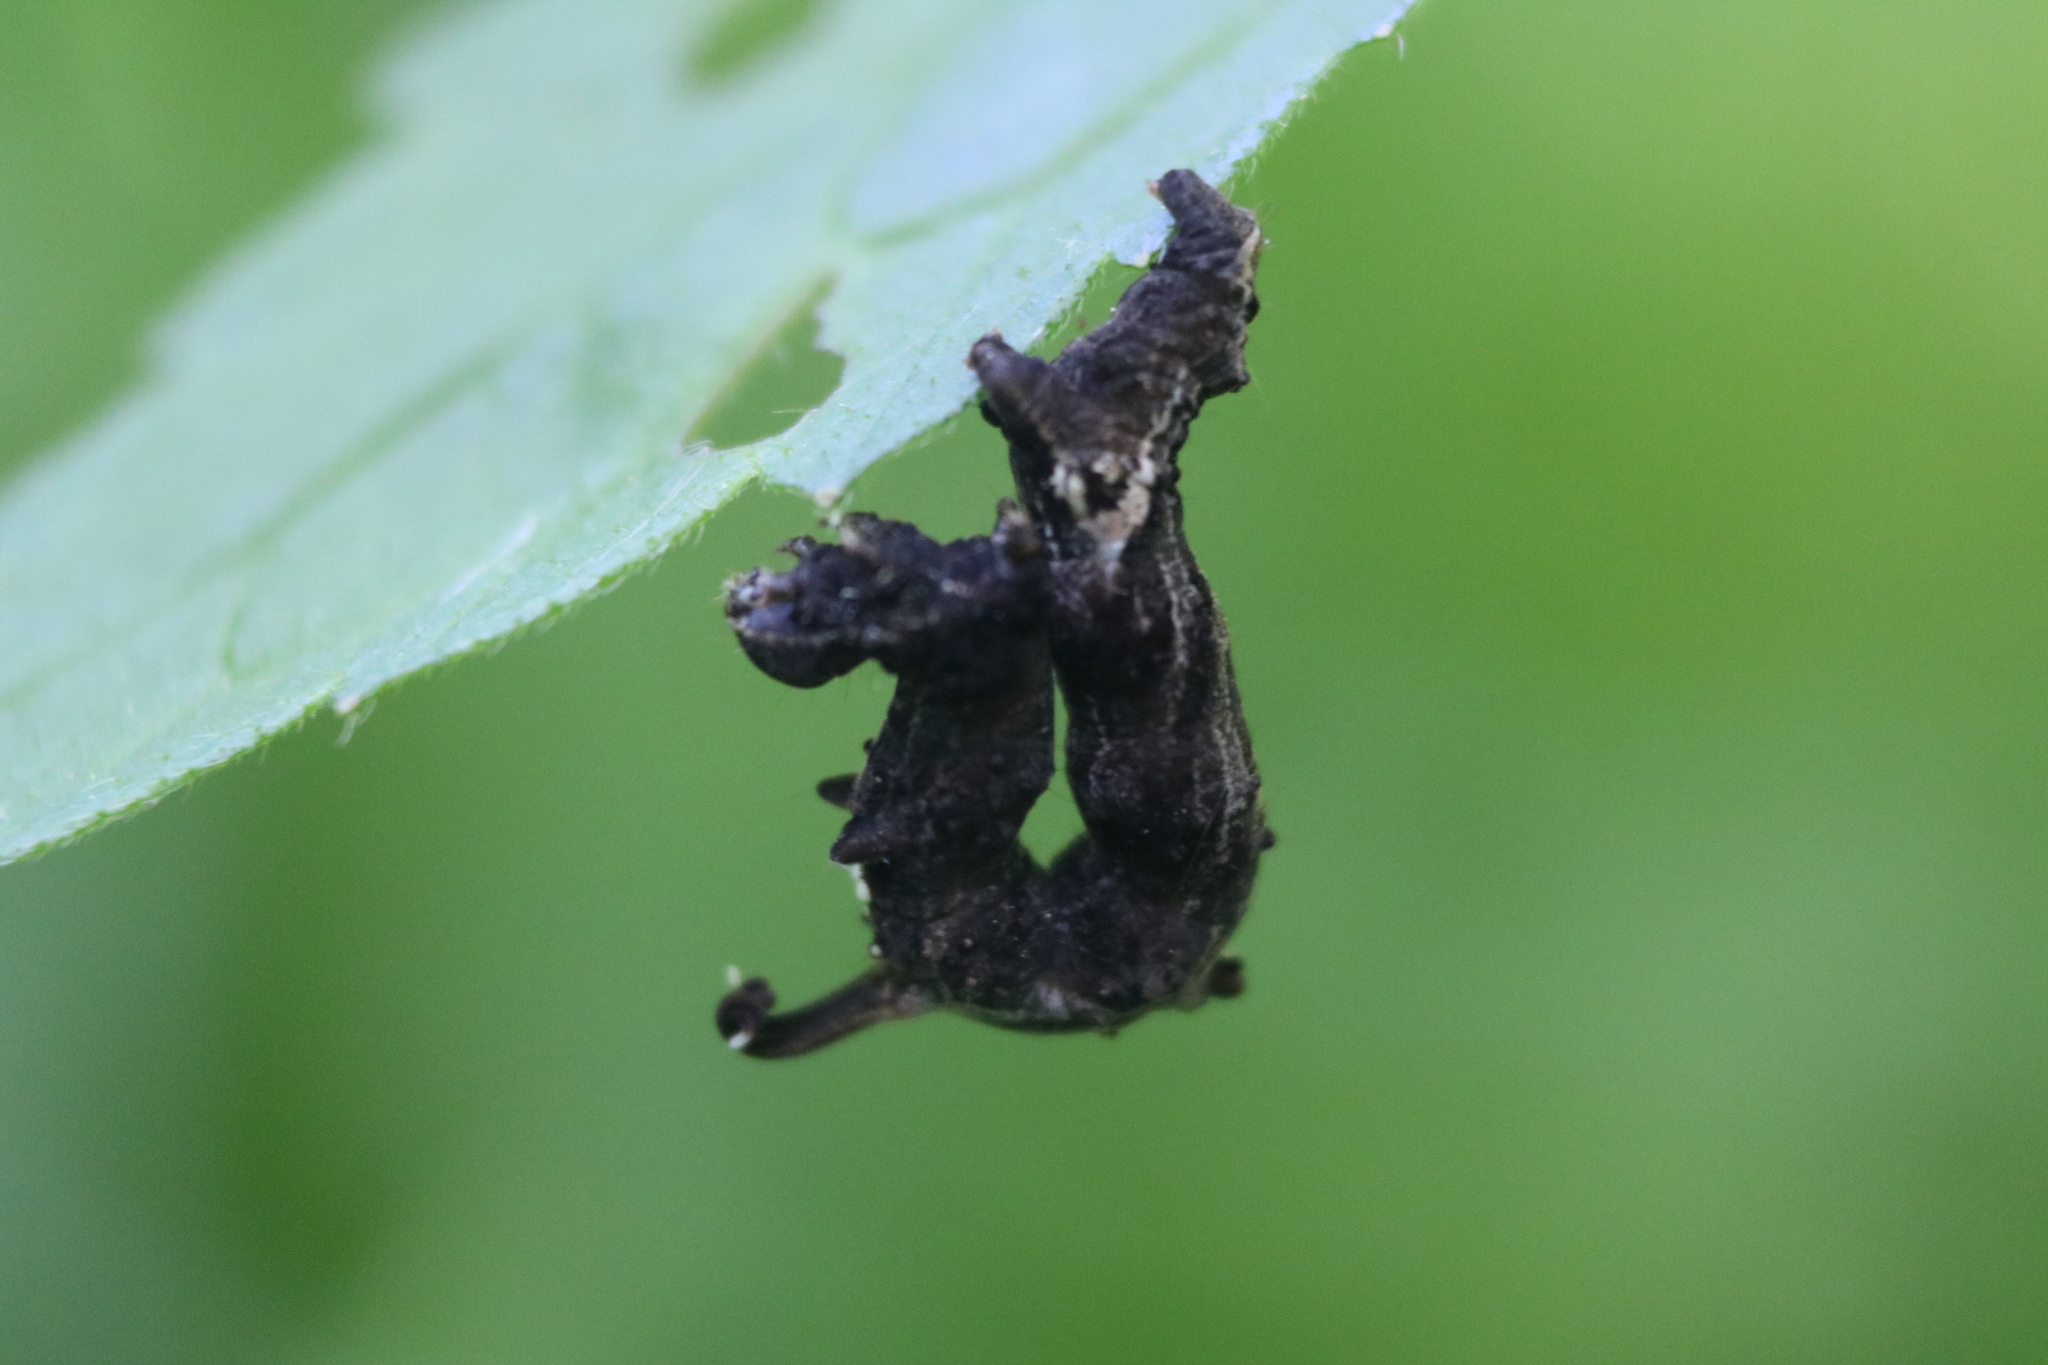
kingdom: Animalia
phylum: Arthropoda
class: Insecta
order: Lepidoptera
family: Geometridae
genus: Nematocampa
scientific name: Nematocampa resistaria
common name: Horned spanworm moth
